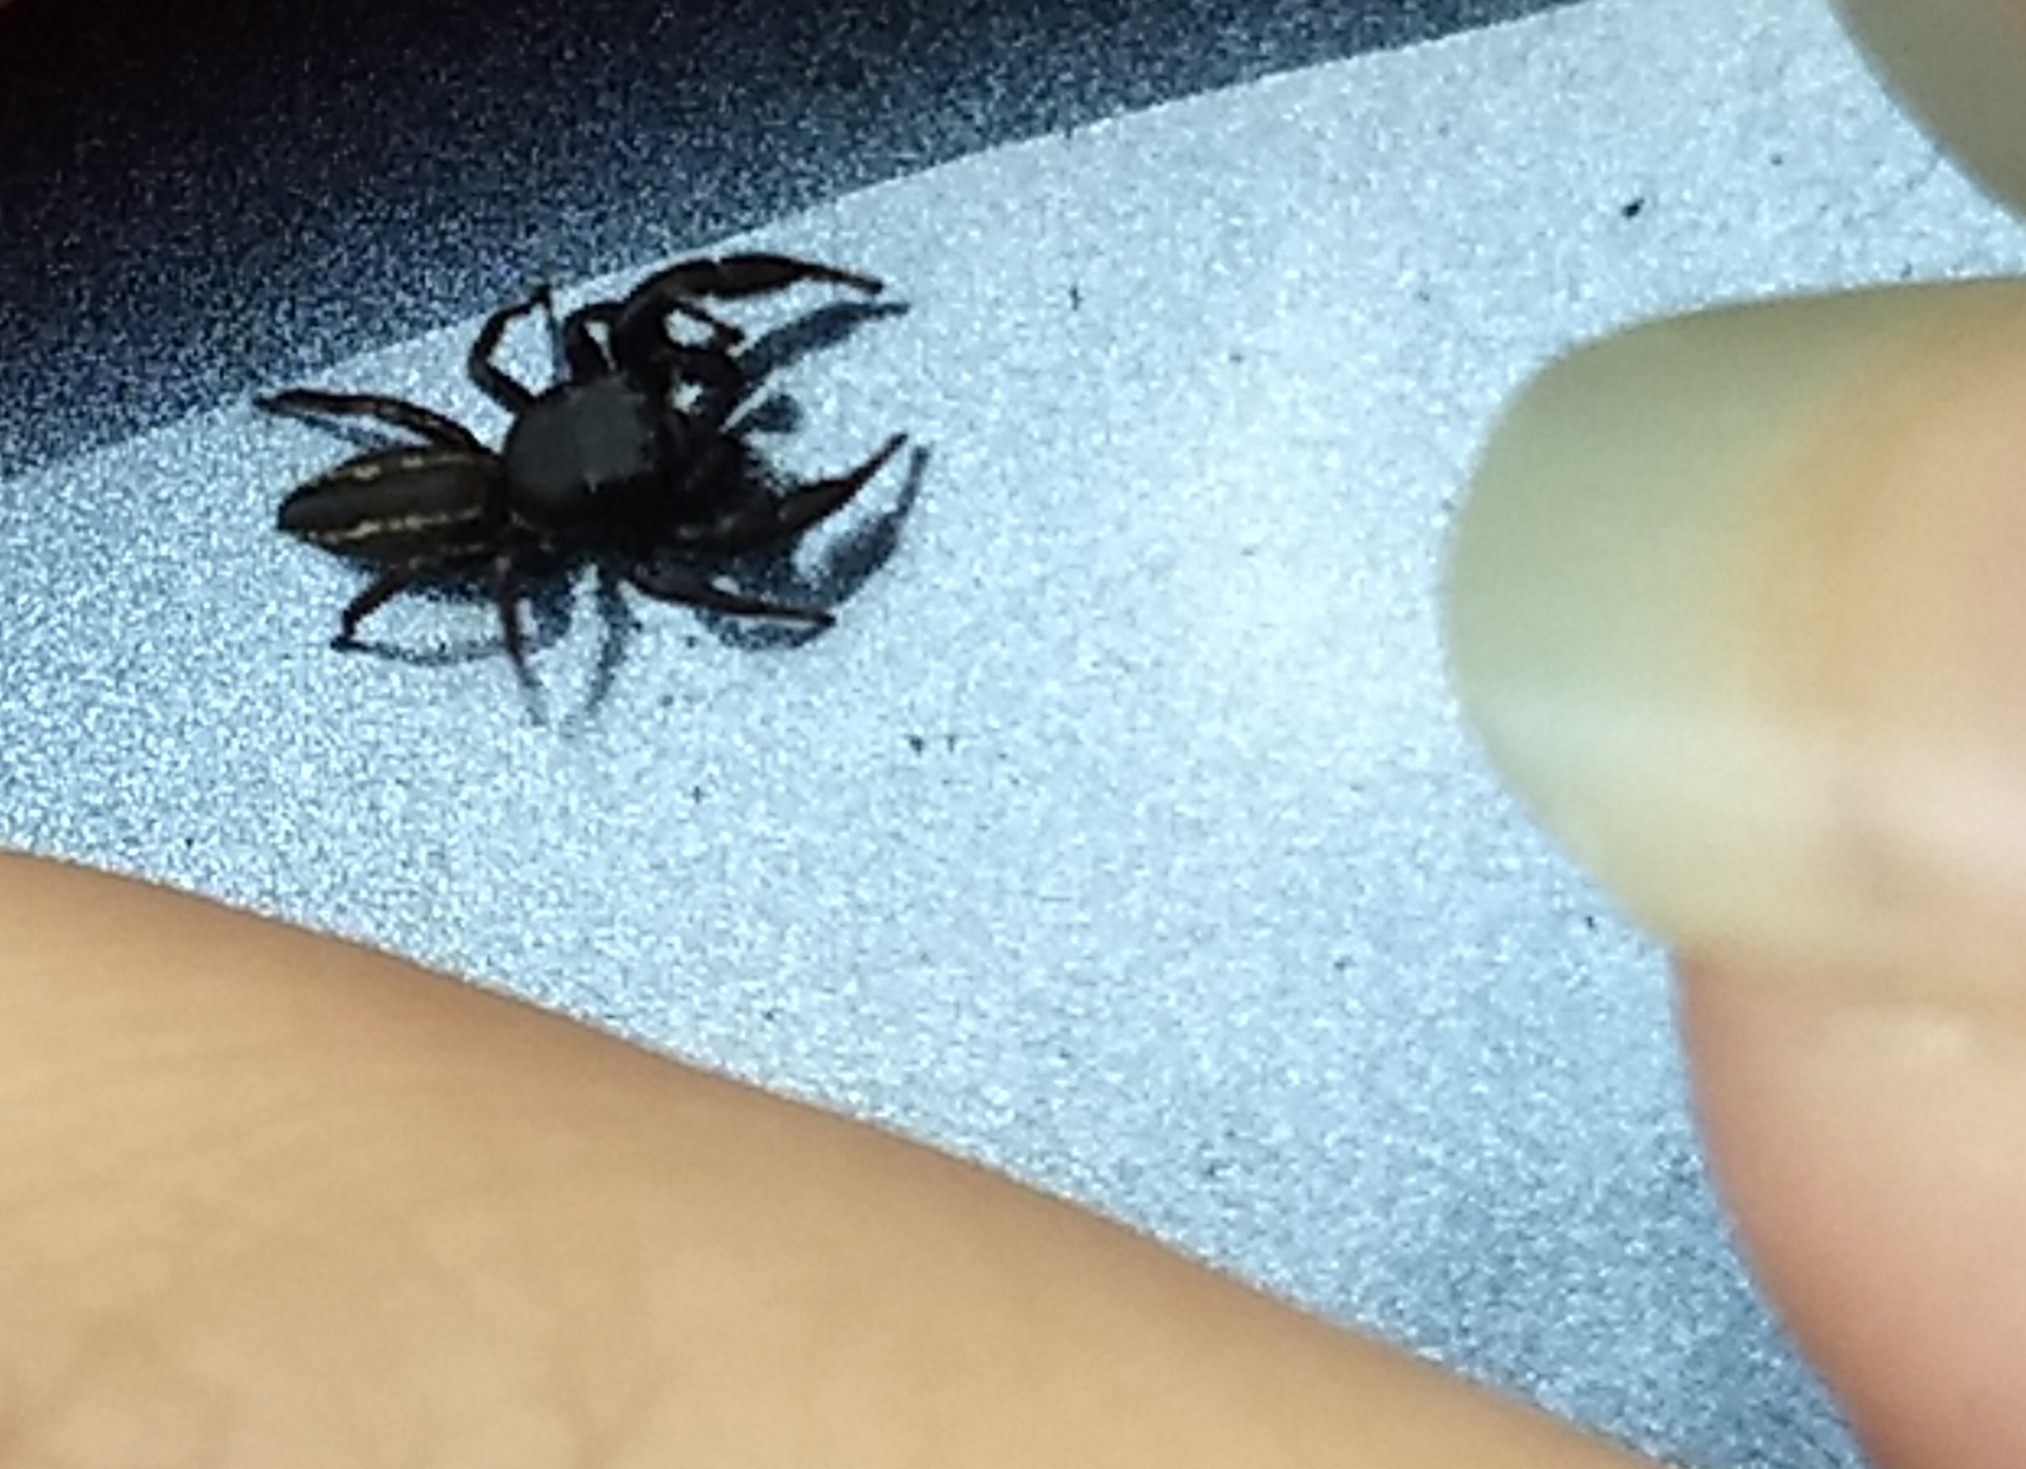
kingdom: Animalia
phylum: Arthropoda
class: Arachnida
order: Araneae
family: Salticidae
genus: Metacyrba
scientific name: Metacyrba taeniola
